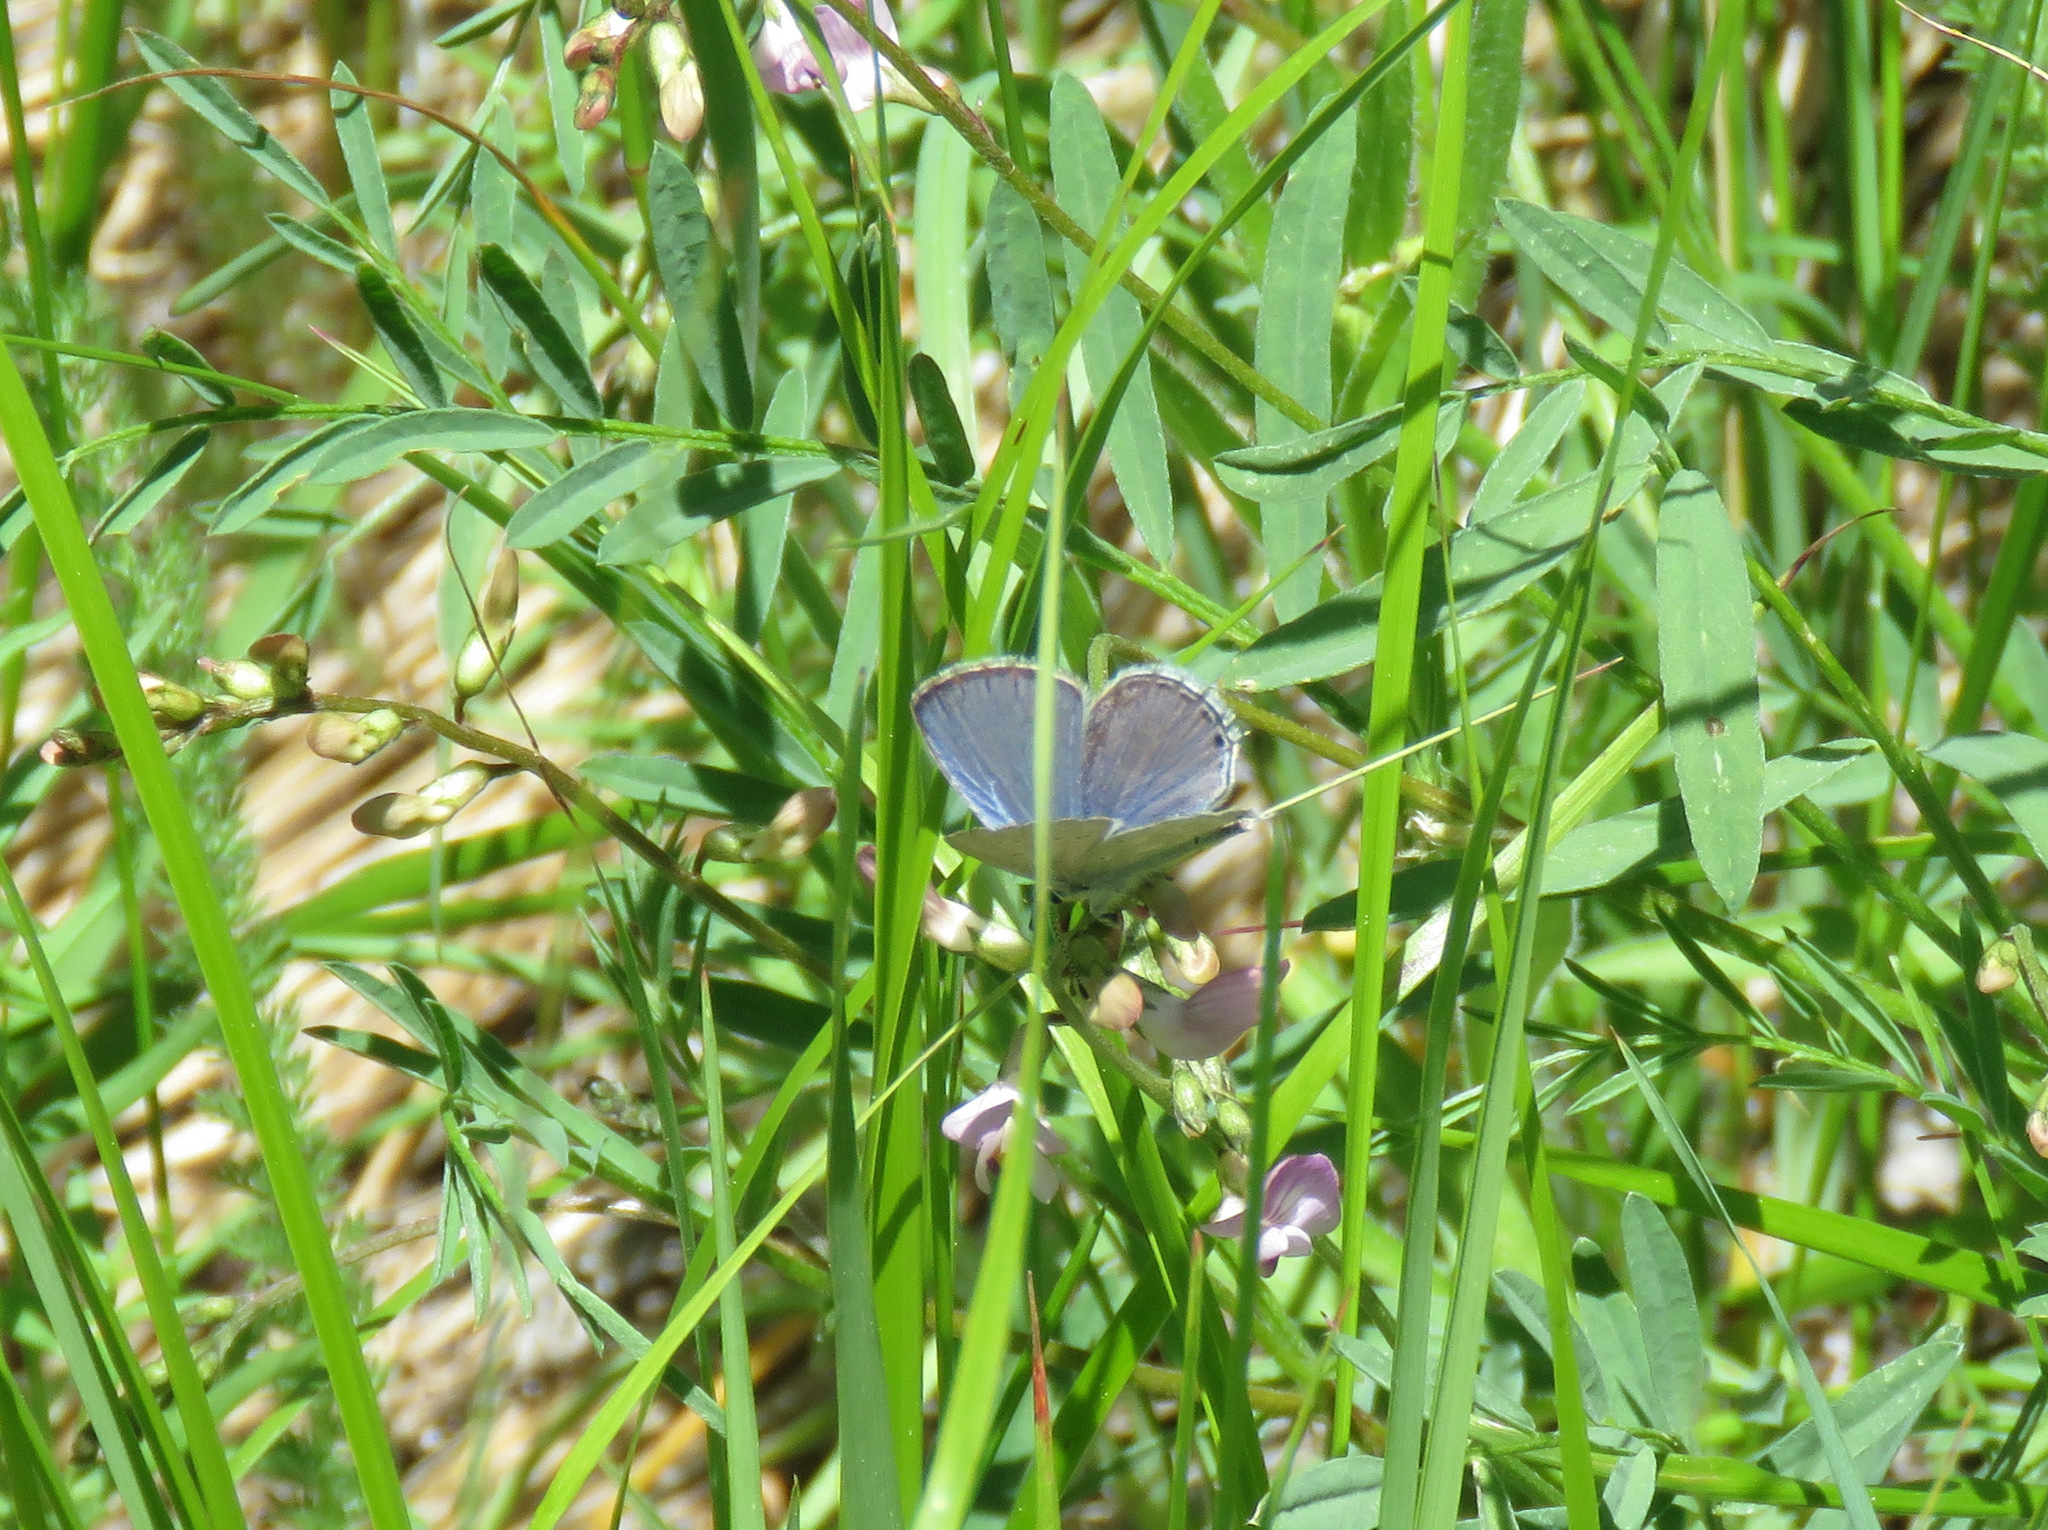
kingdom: Animalia
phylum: Arthropoda
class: Insecta
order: Lepidoptera
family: Lycaenidae
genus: Elkalyce
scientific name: Elkalyce amyntula
